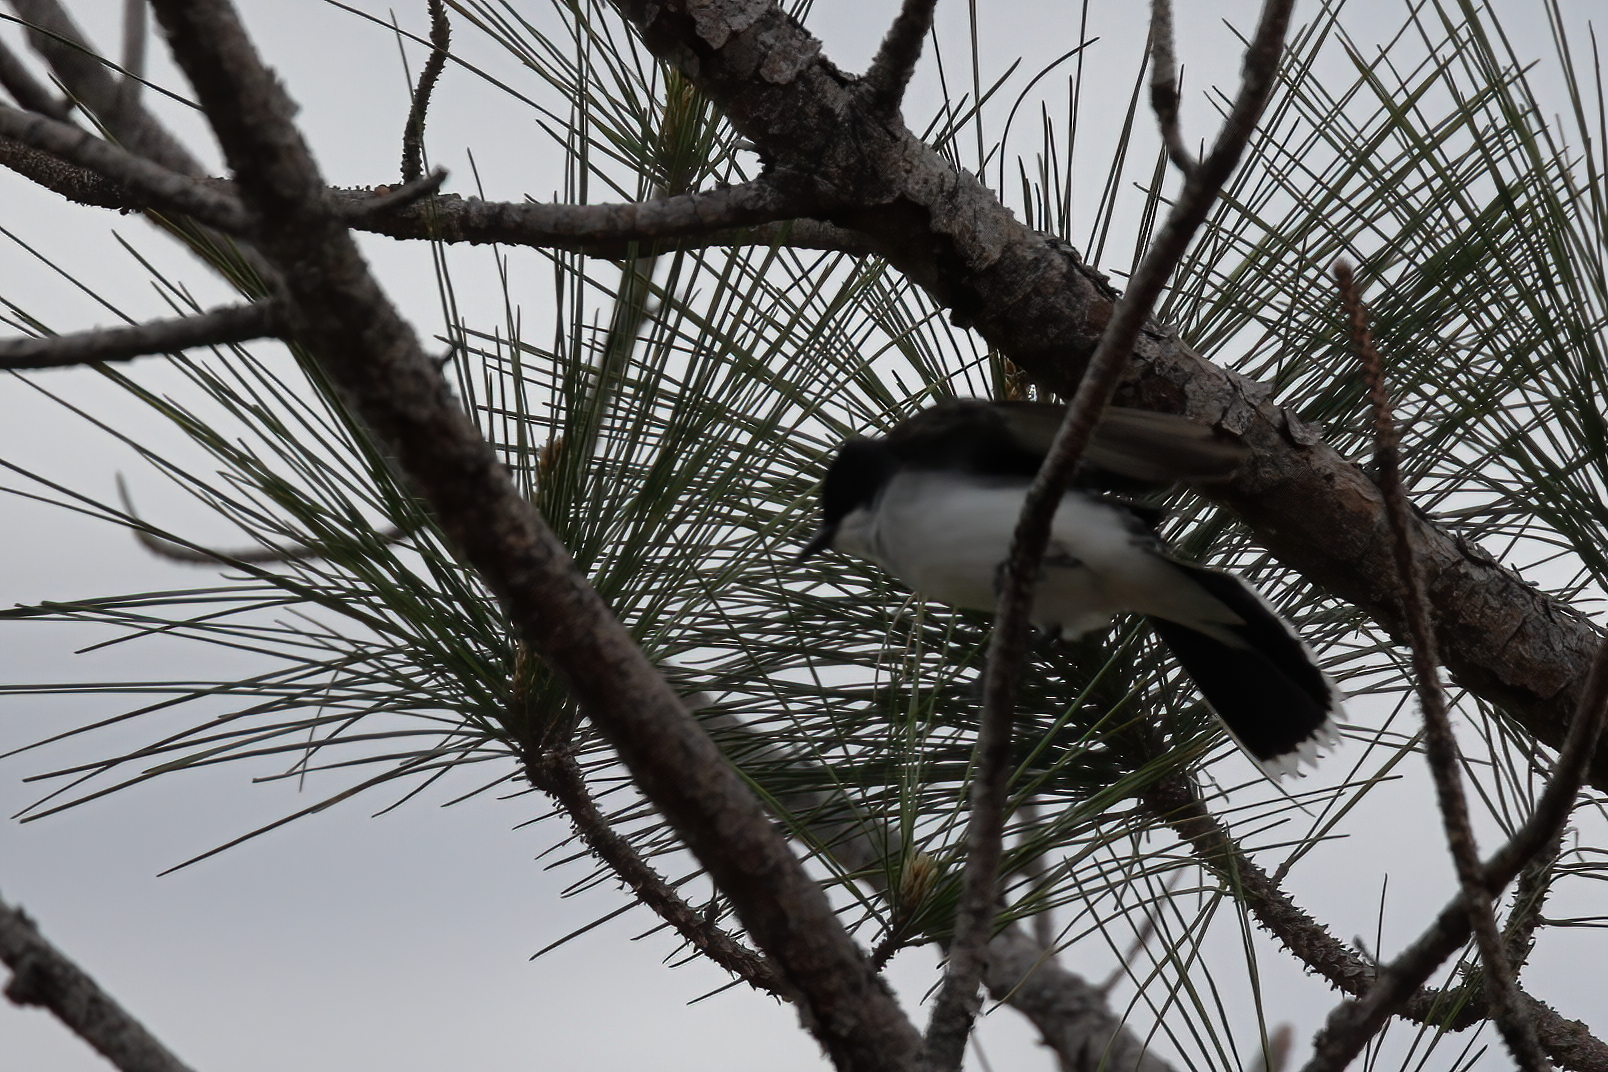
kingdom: Animalia
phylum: Chordata
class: Aves
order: Passeriformes
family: Tyrannidae
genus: Tyrannus
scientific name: Tyrannus tyrannus
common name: Eastern kingbird
